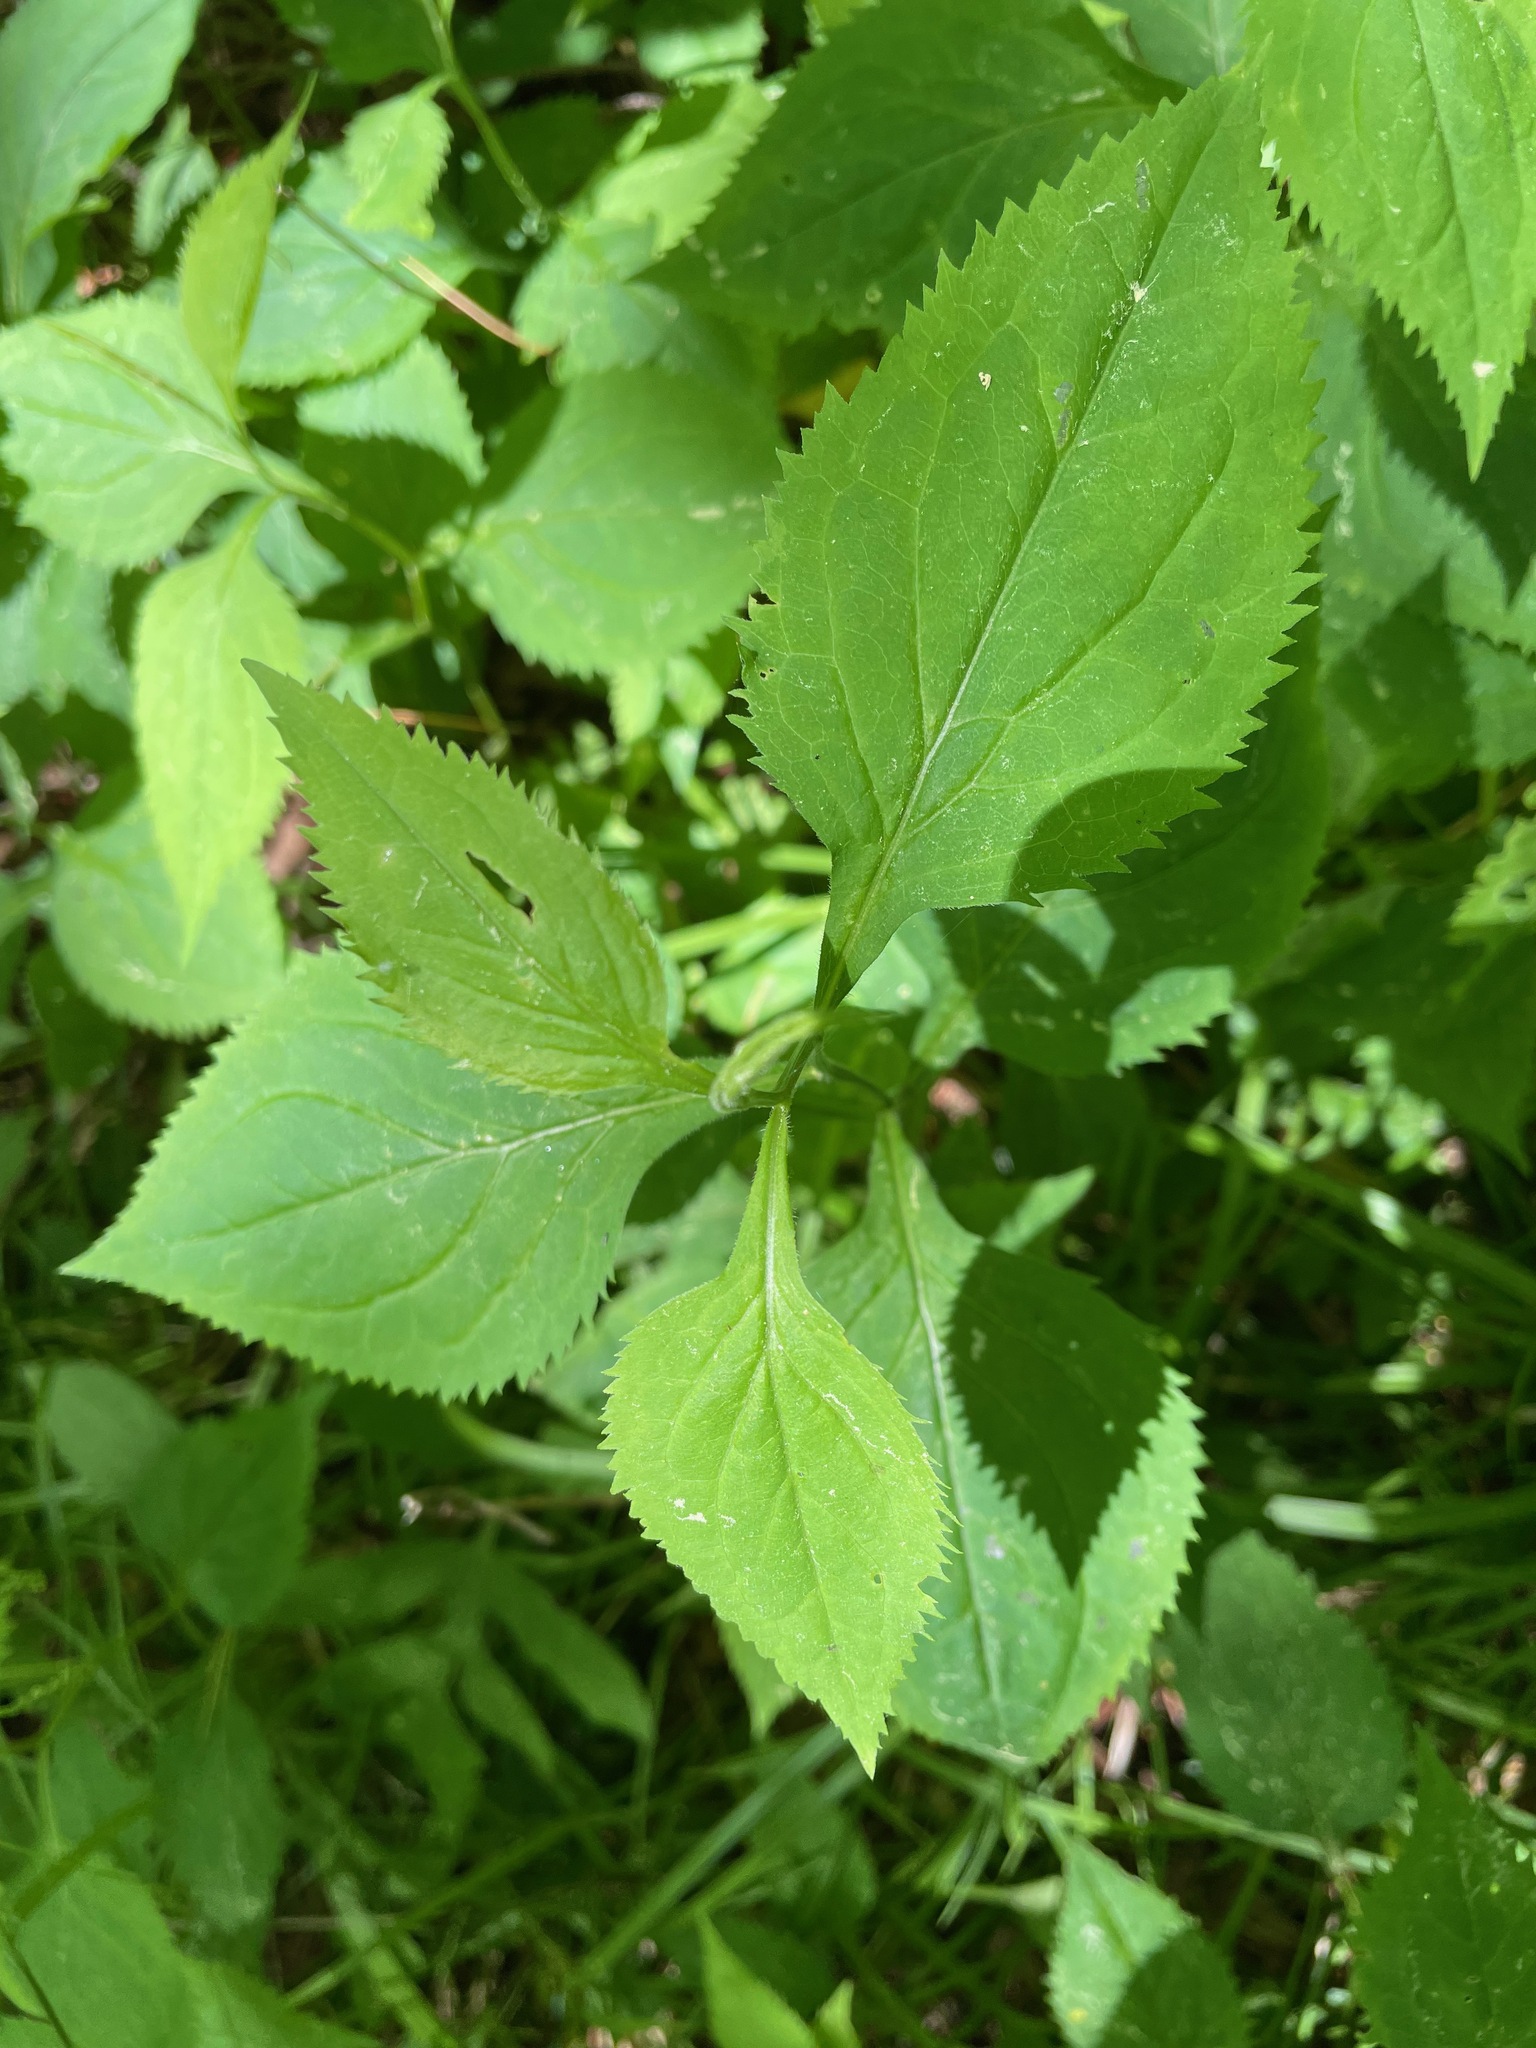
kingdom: Plantae
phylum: Tracheophyta
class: Magnoliopsida
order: Asterales
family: Asteraceae
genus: Solidago
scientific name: Solidago flexicaulis
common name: Zig-zag goldenrod
